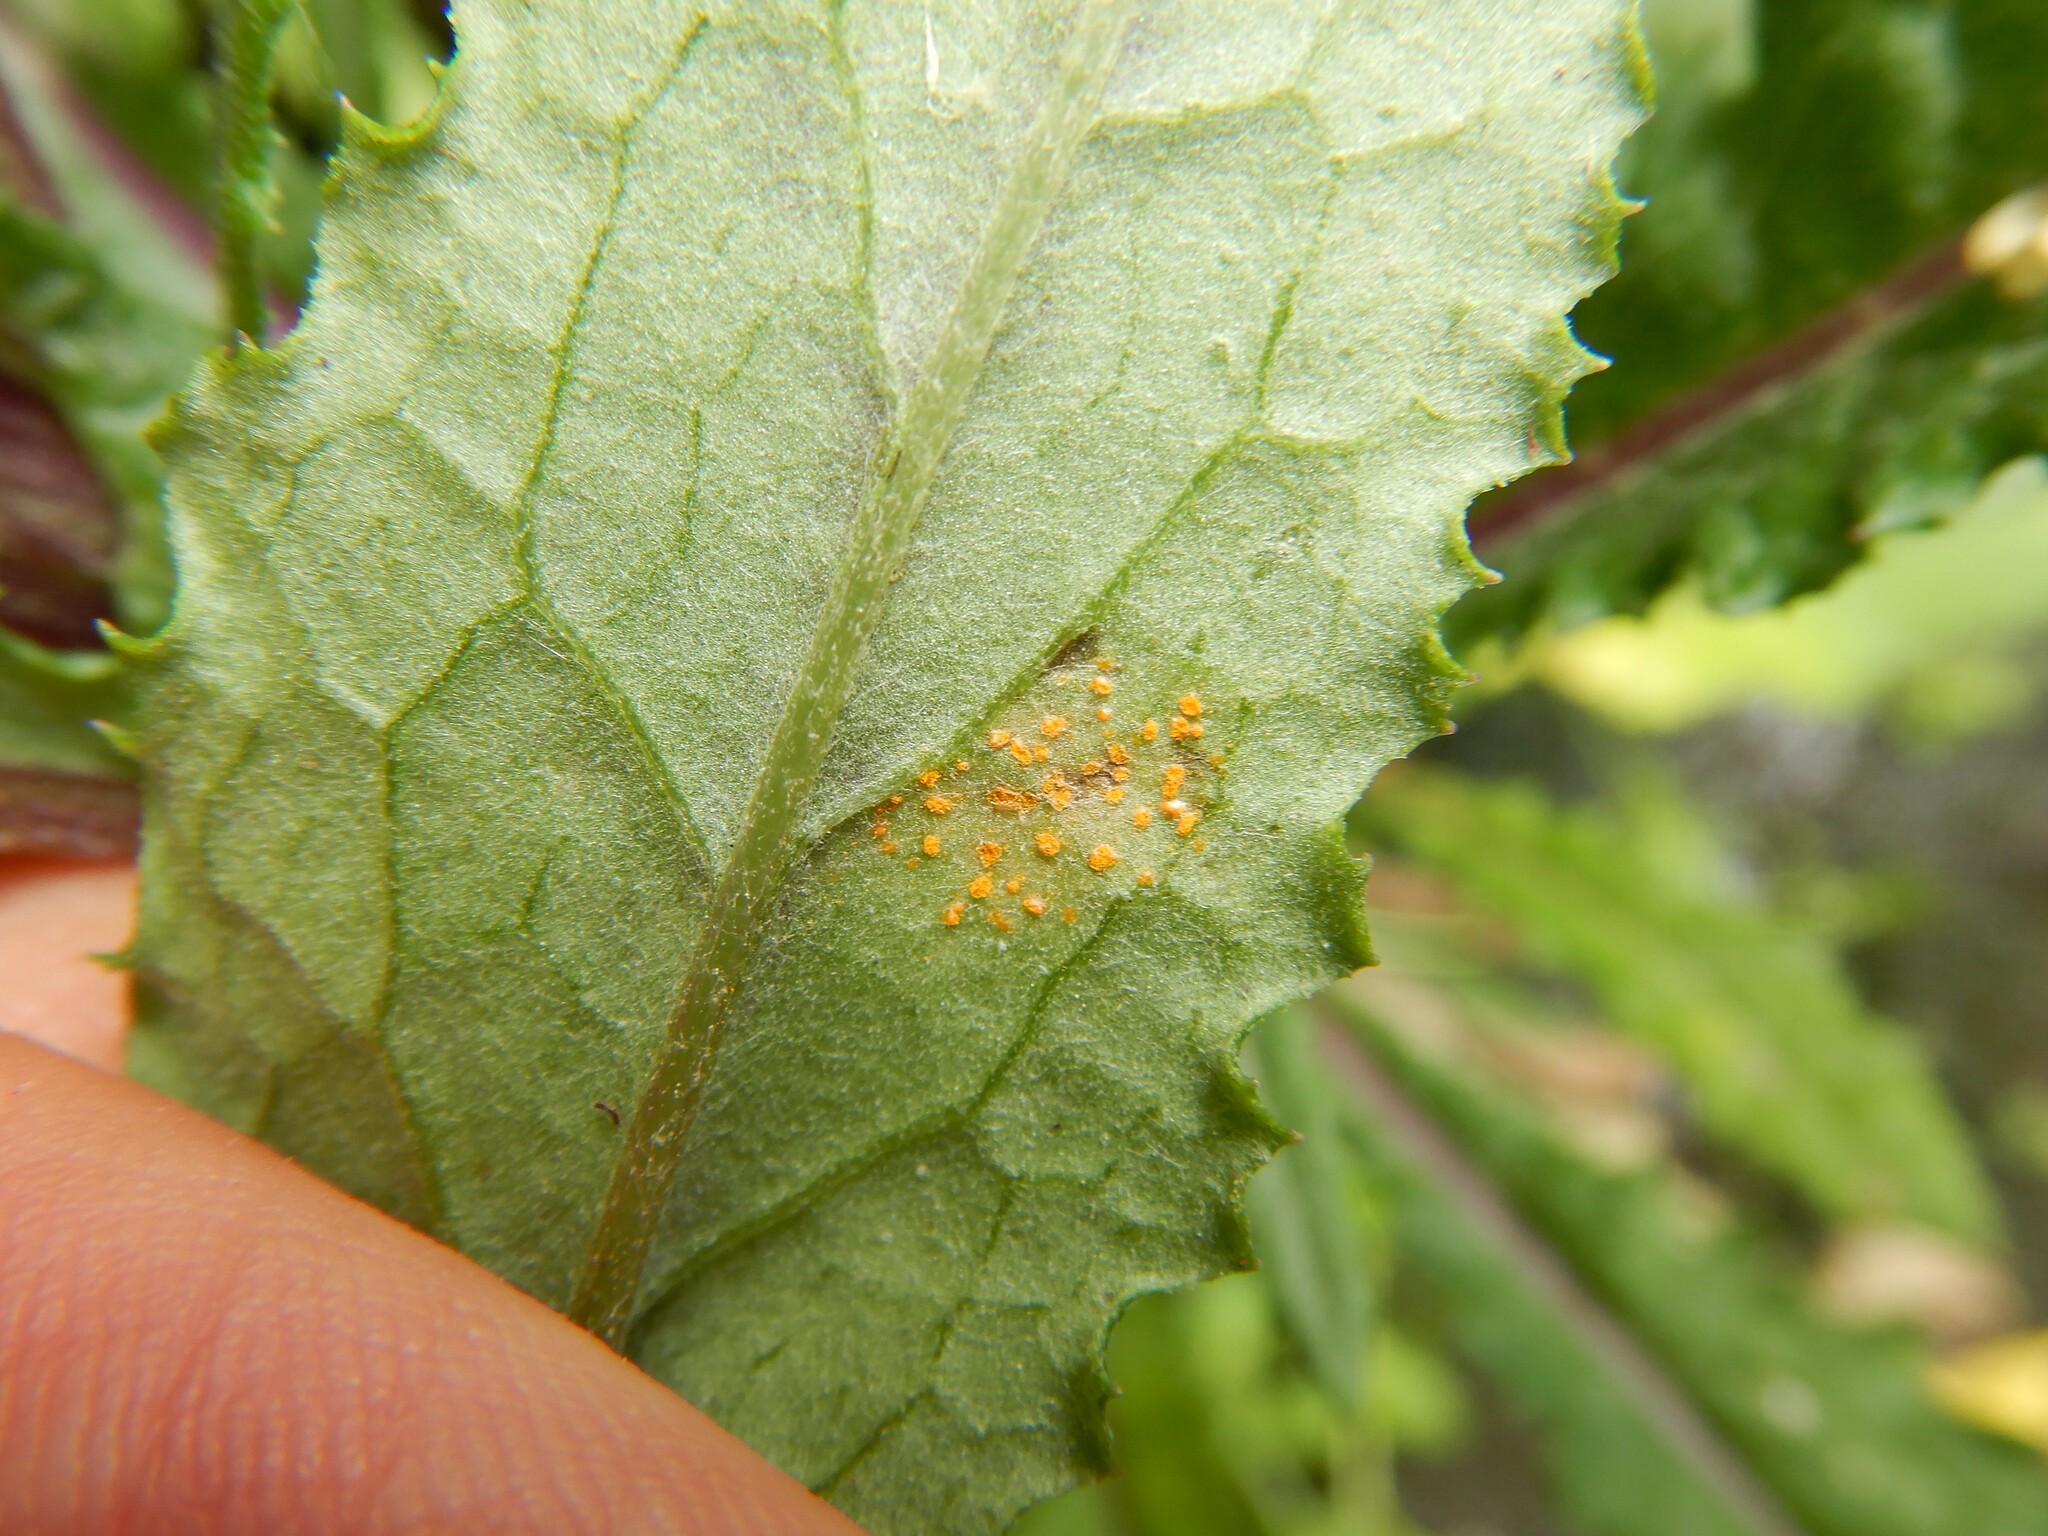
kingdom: Fungi
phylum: Basidiomycota
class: Pucciniomycetes
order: Pucciniales
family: Coleosporiaceae
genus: Coleosporium
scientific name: Coleosporium tussilaginis
